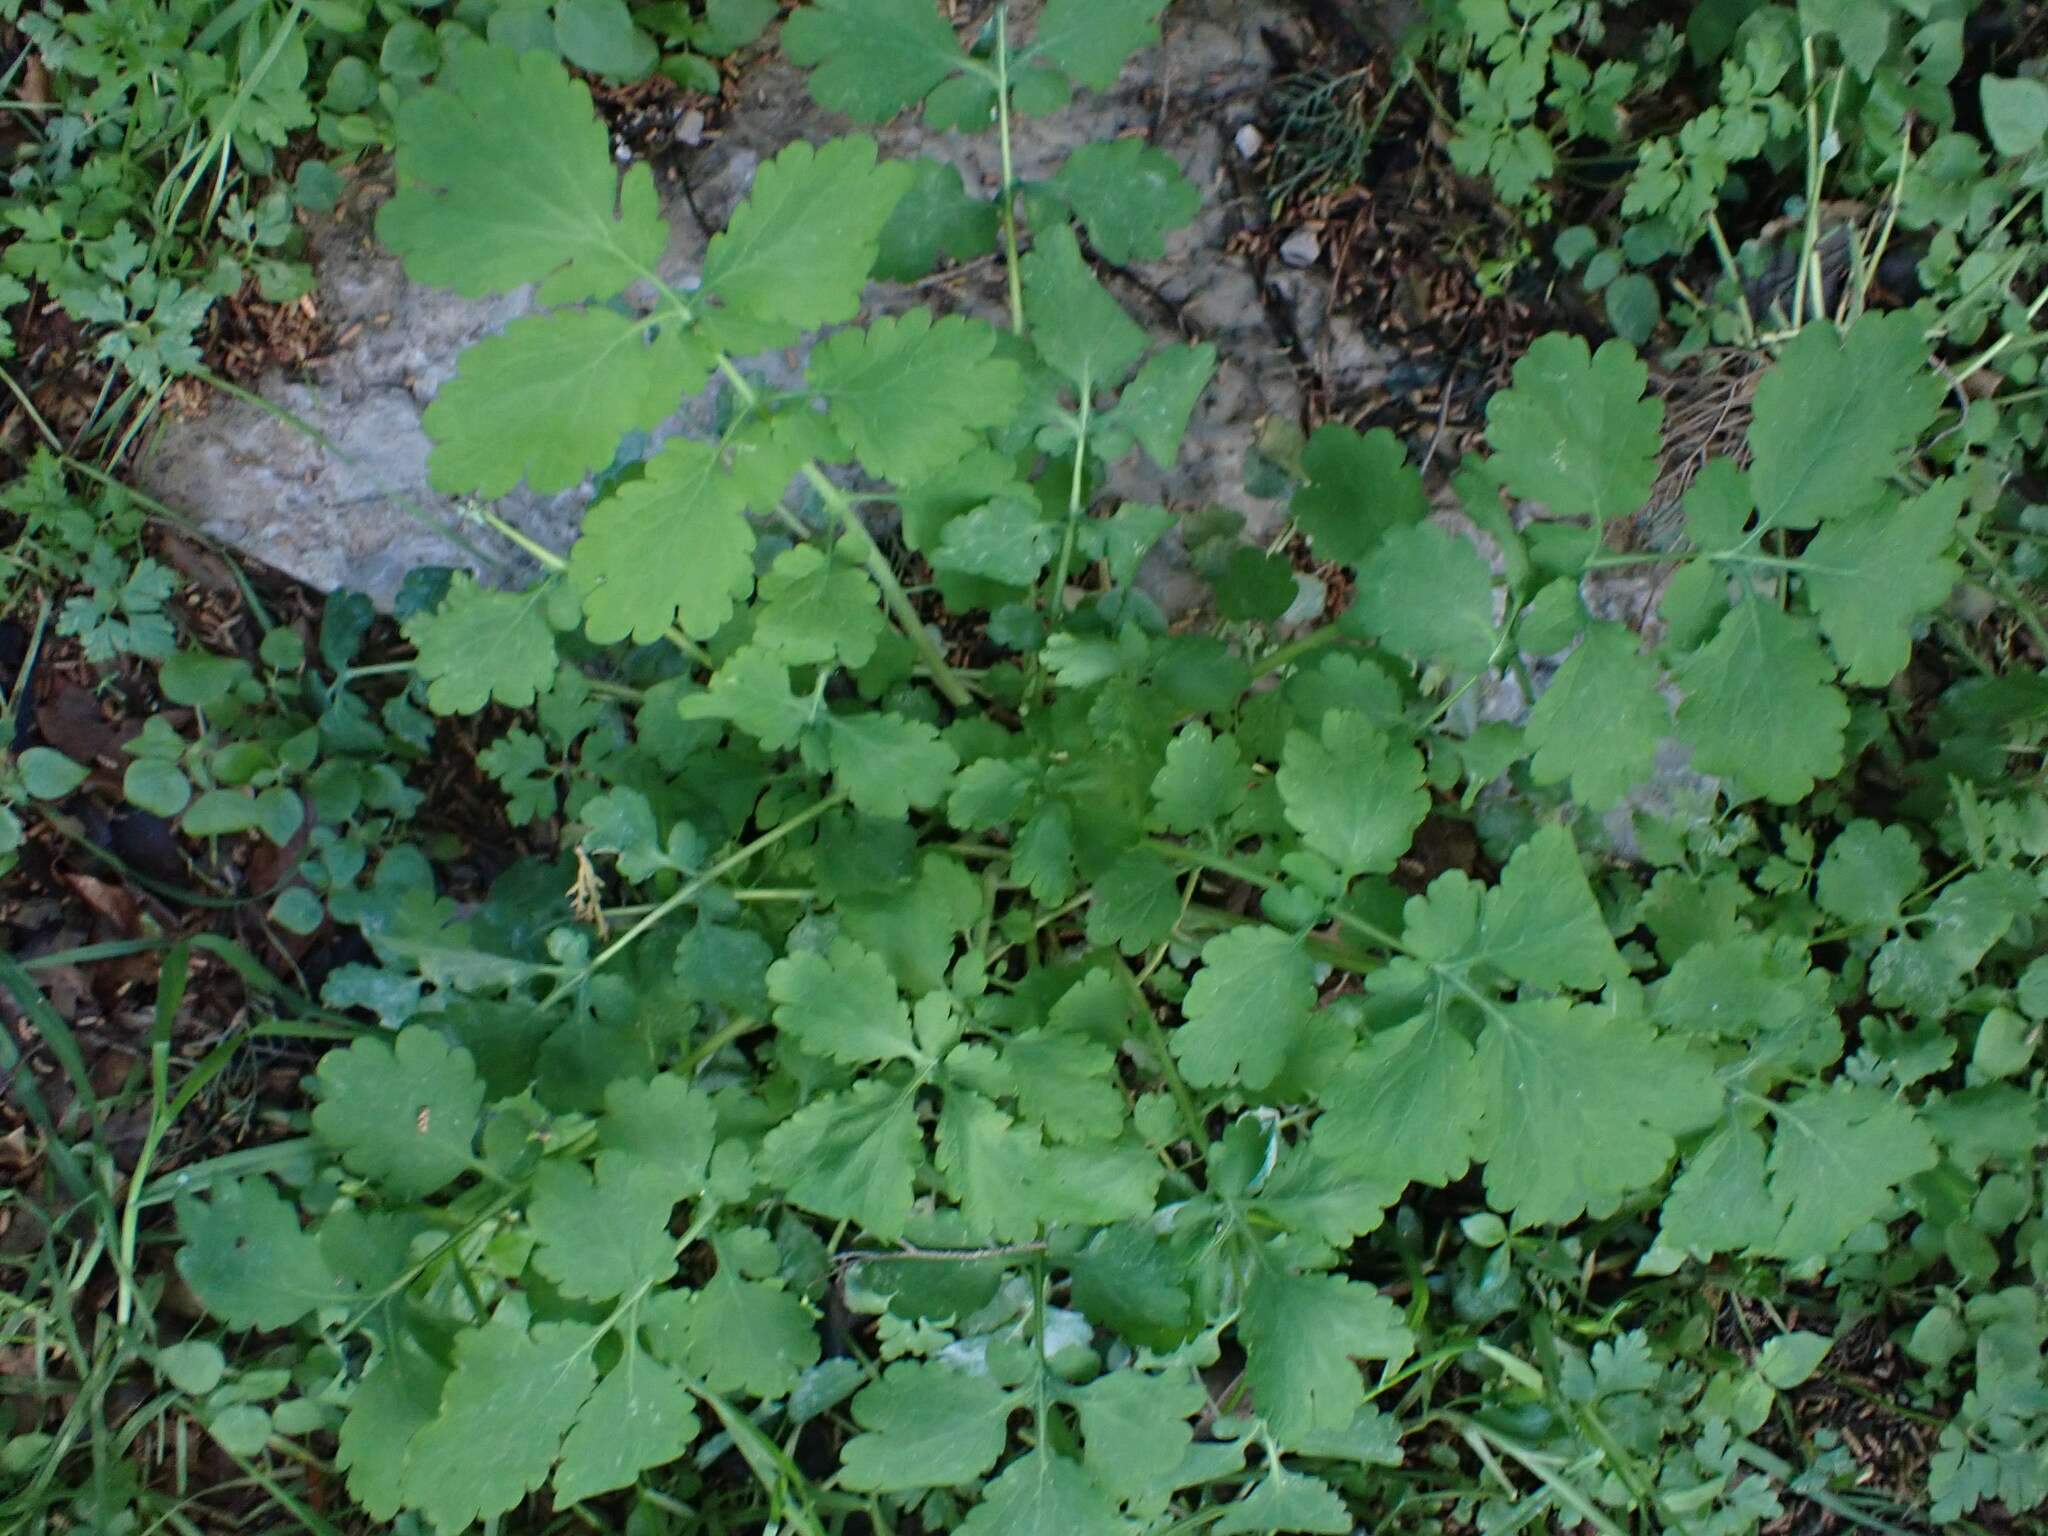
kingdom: Plantae
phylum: Tracheophyta
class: Magnoliopsida
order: Ranunculales
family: Papaveraceae
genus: Chelidonium
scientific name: Chelidonium majus
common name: Greater celandine
